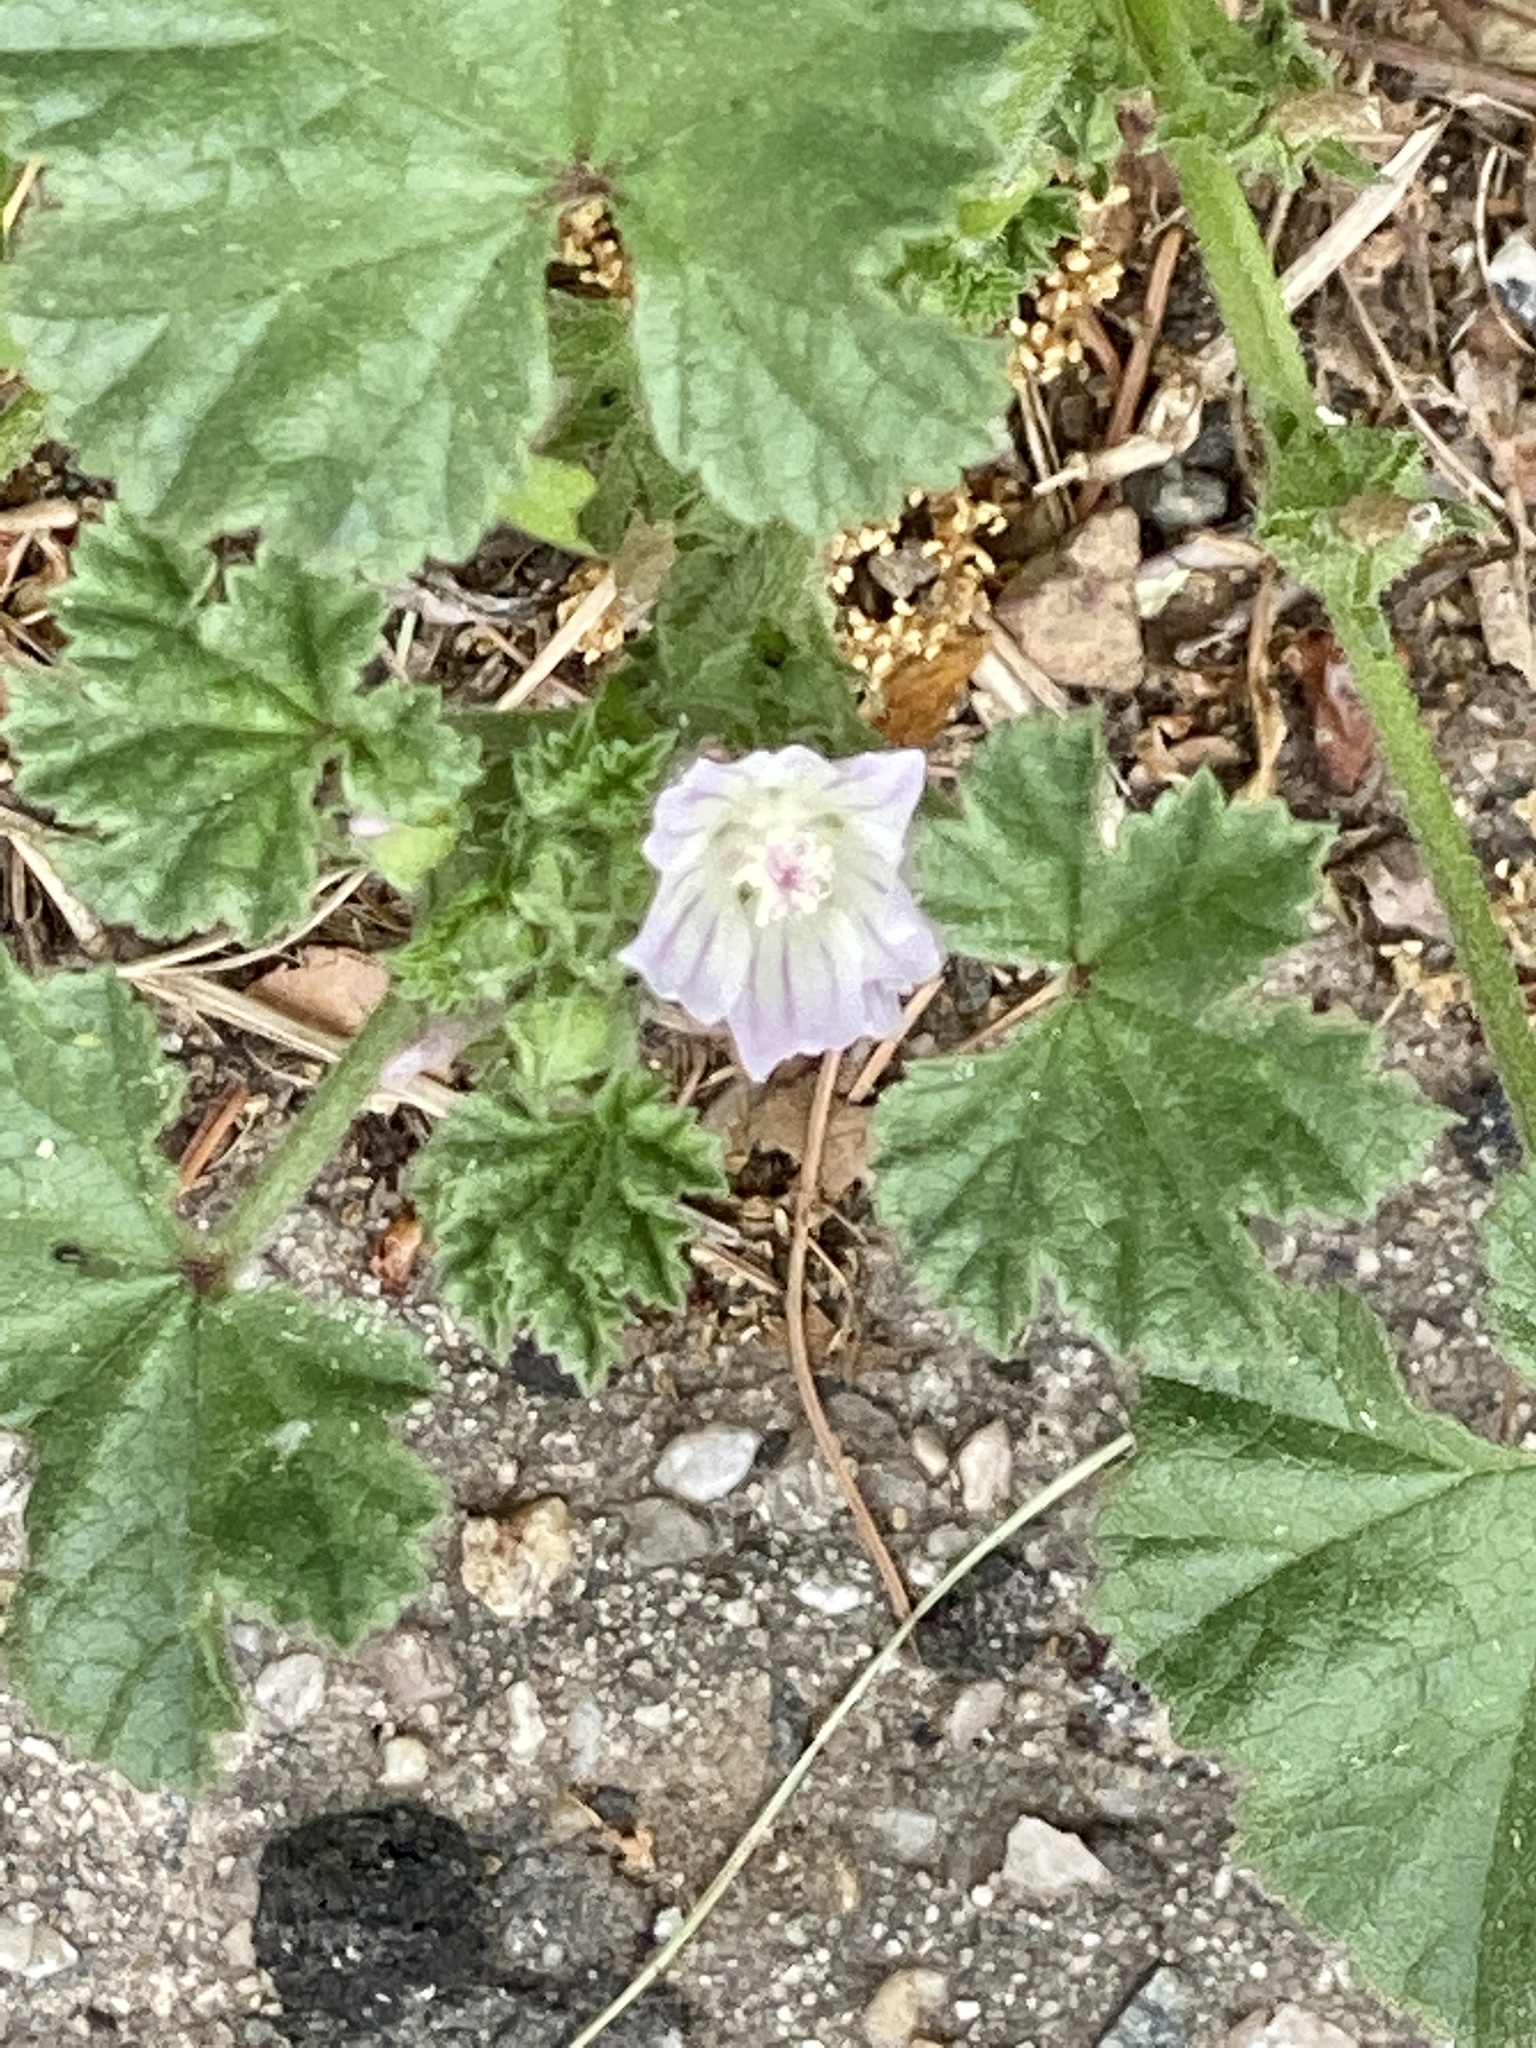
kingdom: Plantae
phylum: Tracheophyta
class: Magnoliopsida
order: Malvales
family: Malvaceae
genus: Malva
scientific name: Malva neglecta
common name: Common mallow
